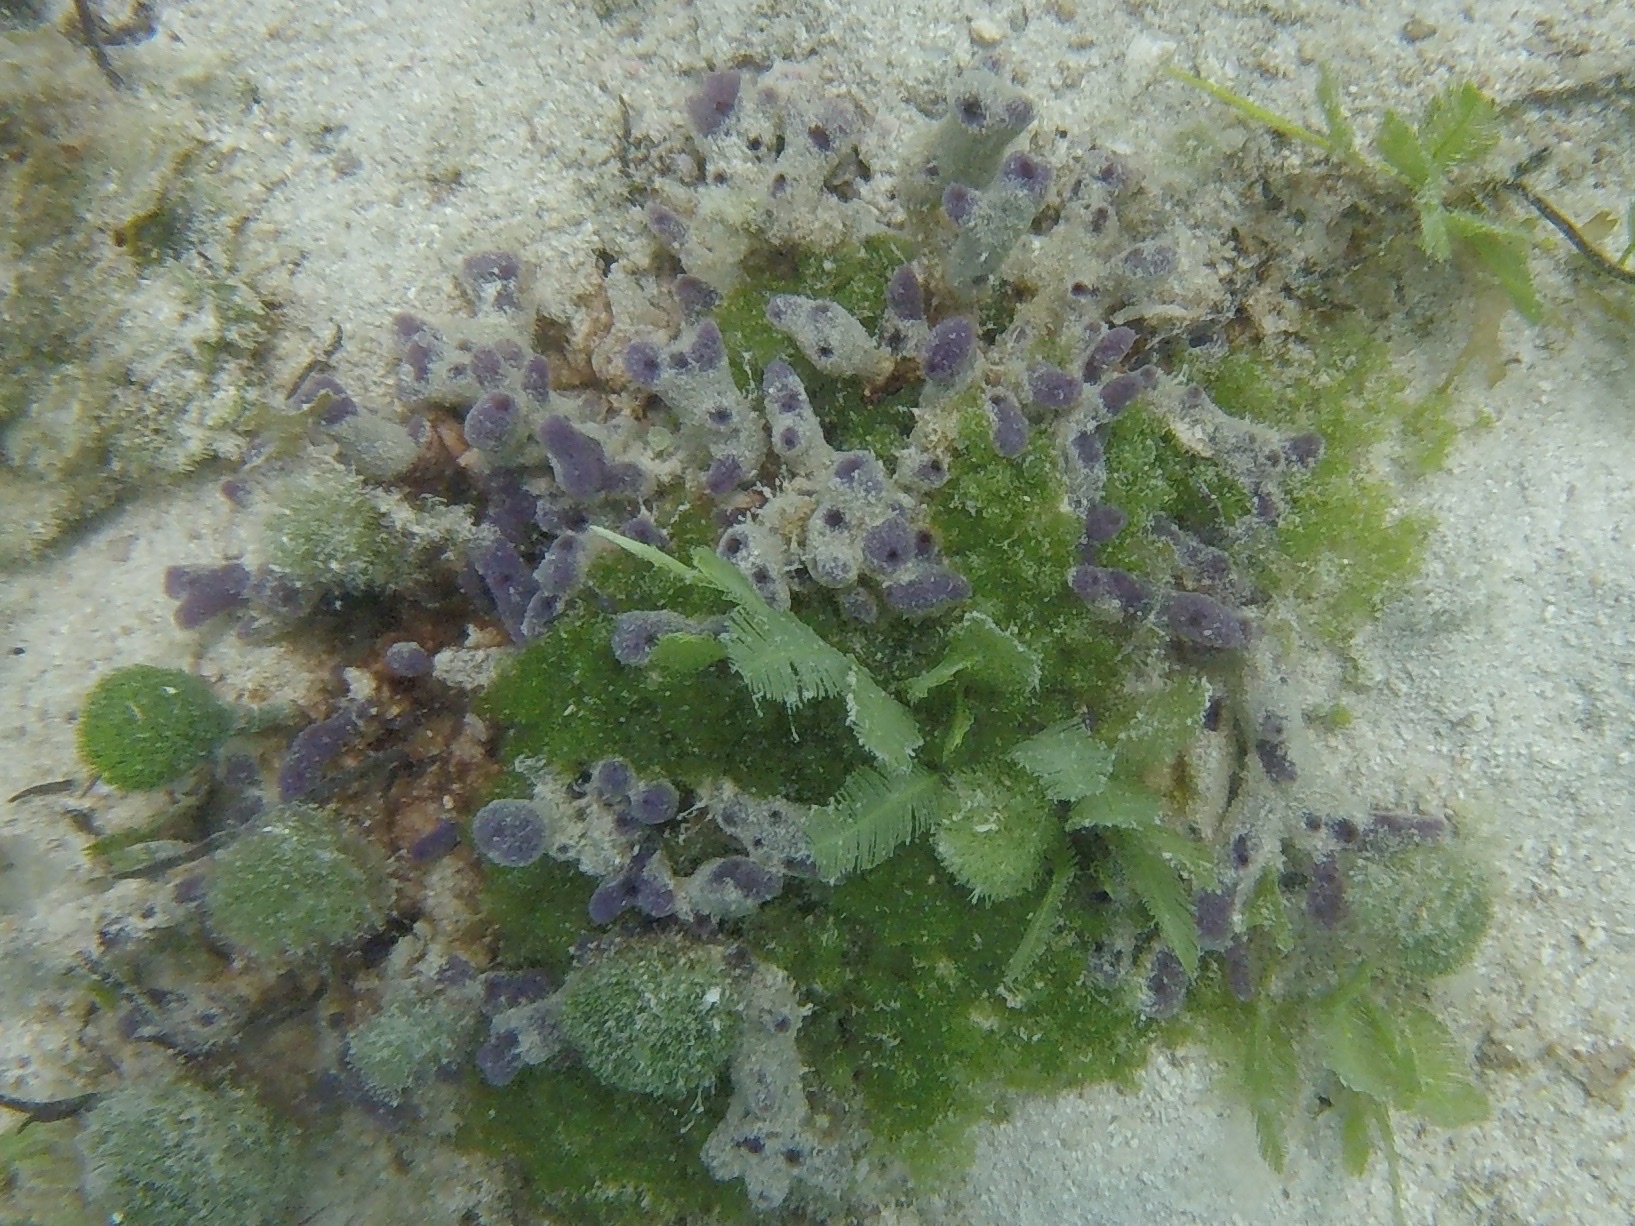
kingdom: Animalia
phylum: Porifera
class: Demospongiae
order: Haplosclerida
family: Chalinidae
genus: Chalinula
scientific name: Chalinula molitba
